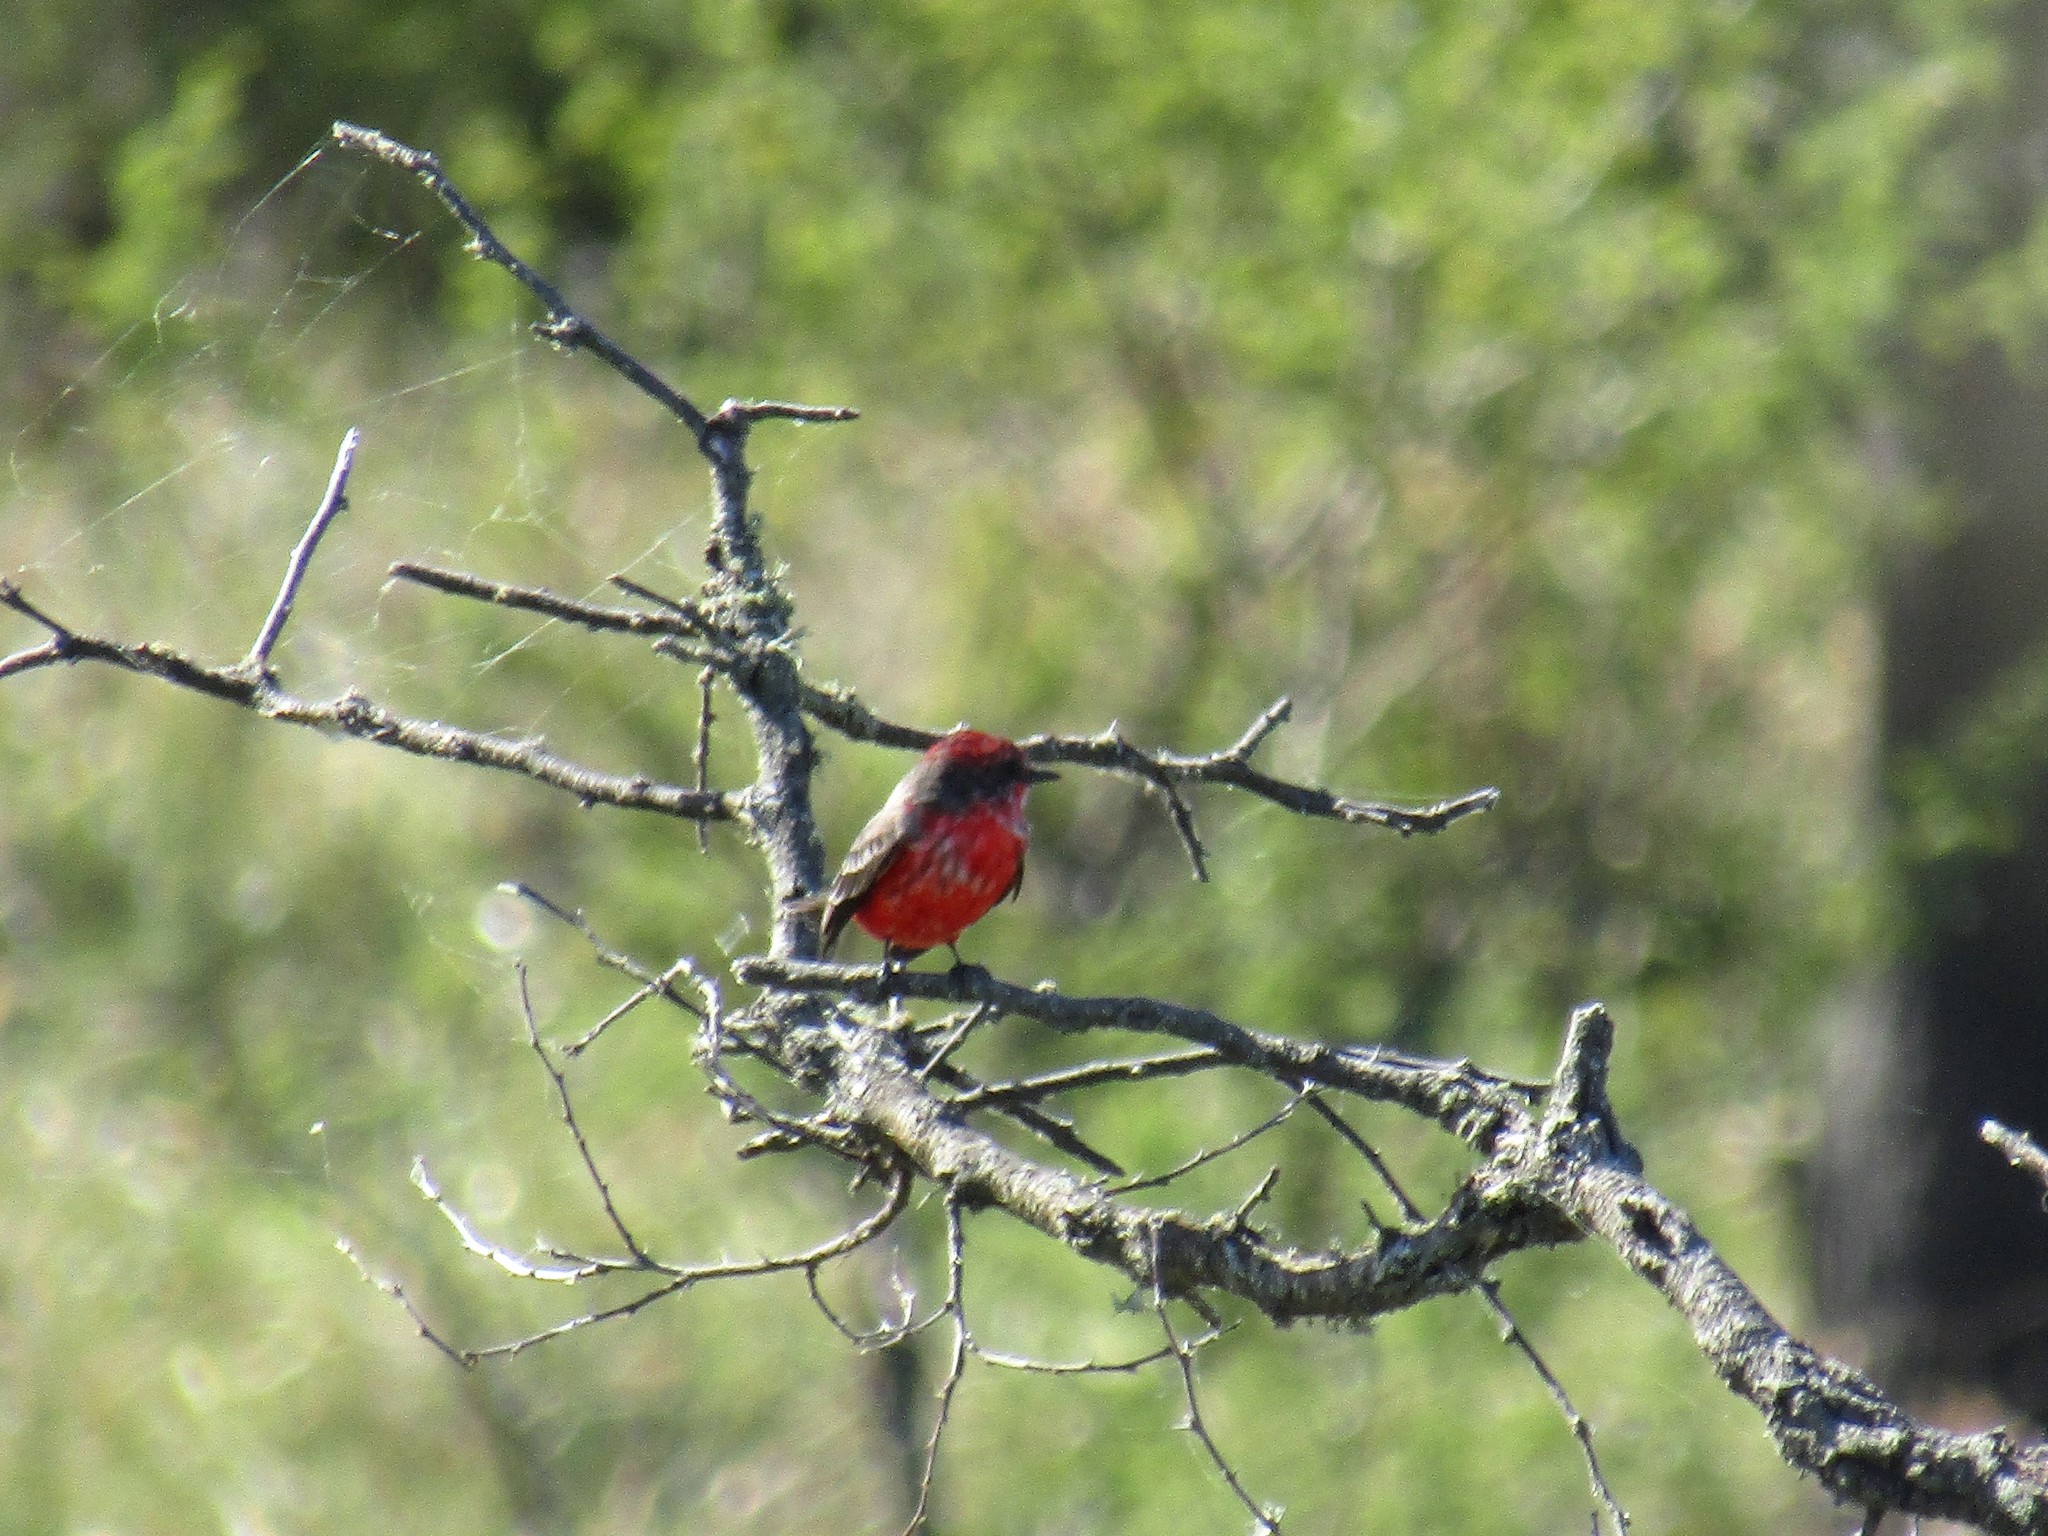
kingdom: Animalia
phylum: Chordata
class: Aves
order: Passeriformes
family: Tyrannidae
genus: Pyrocephalus
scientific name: Pyrocephalus rubinus
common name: Vermilion flycatcher
